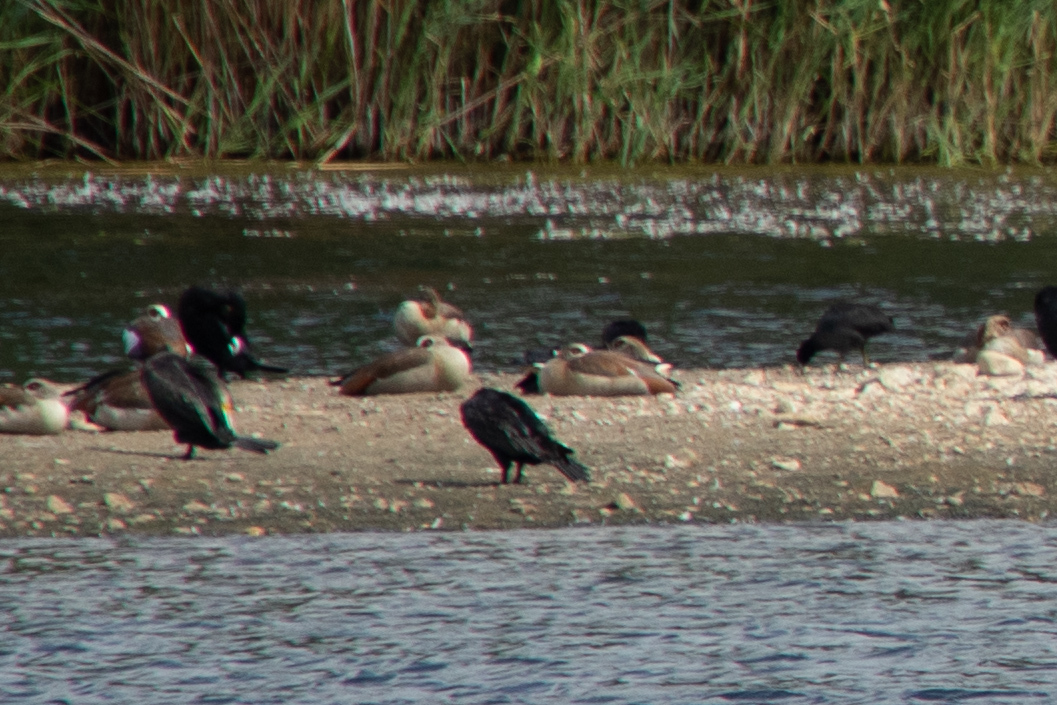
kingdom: Animalia
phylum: Chordata
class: Aves
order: Anseriformes
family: Anatidae
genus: Alopochen
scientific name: Alopochen aegyptiaca
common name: Egyptian goose
